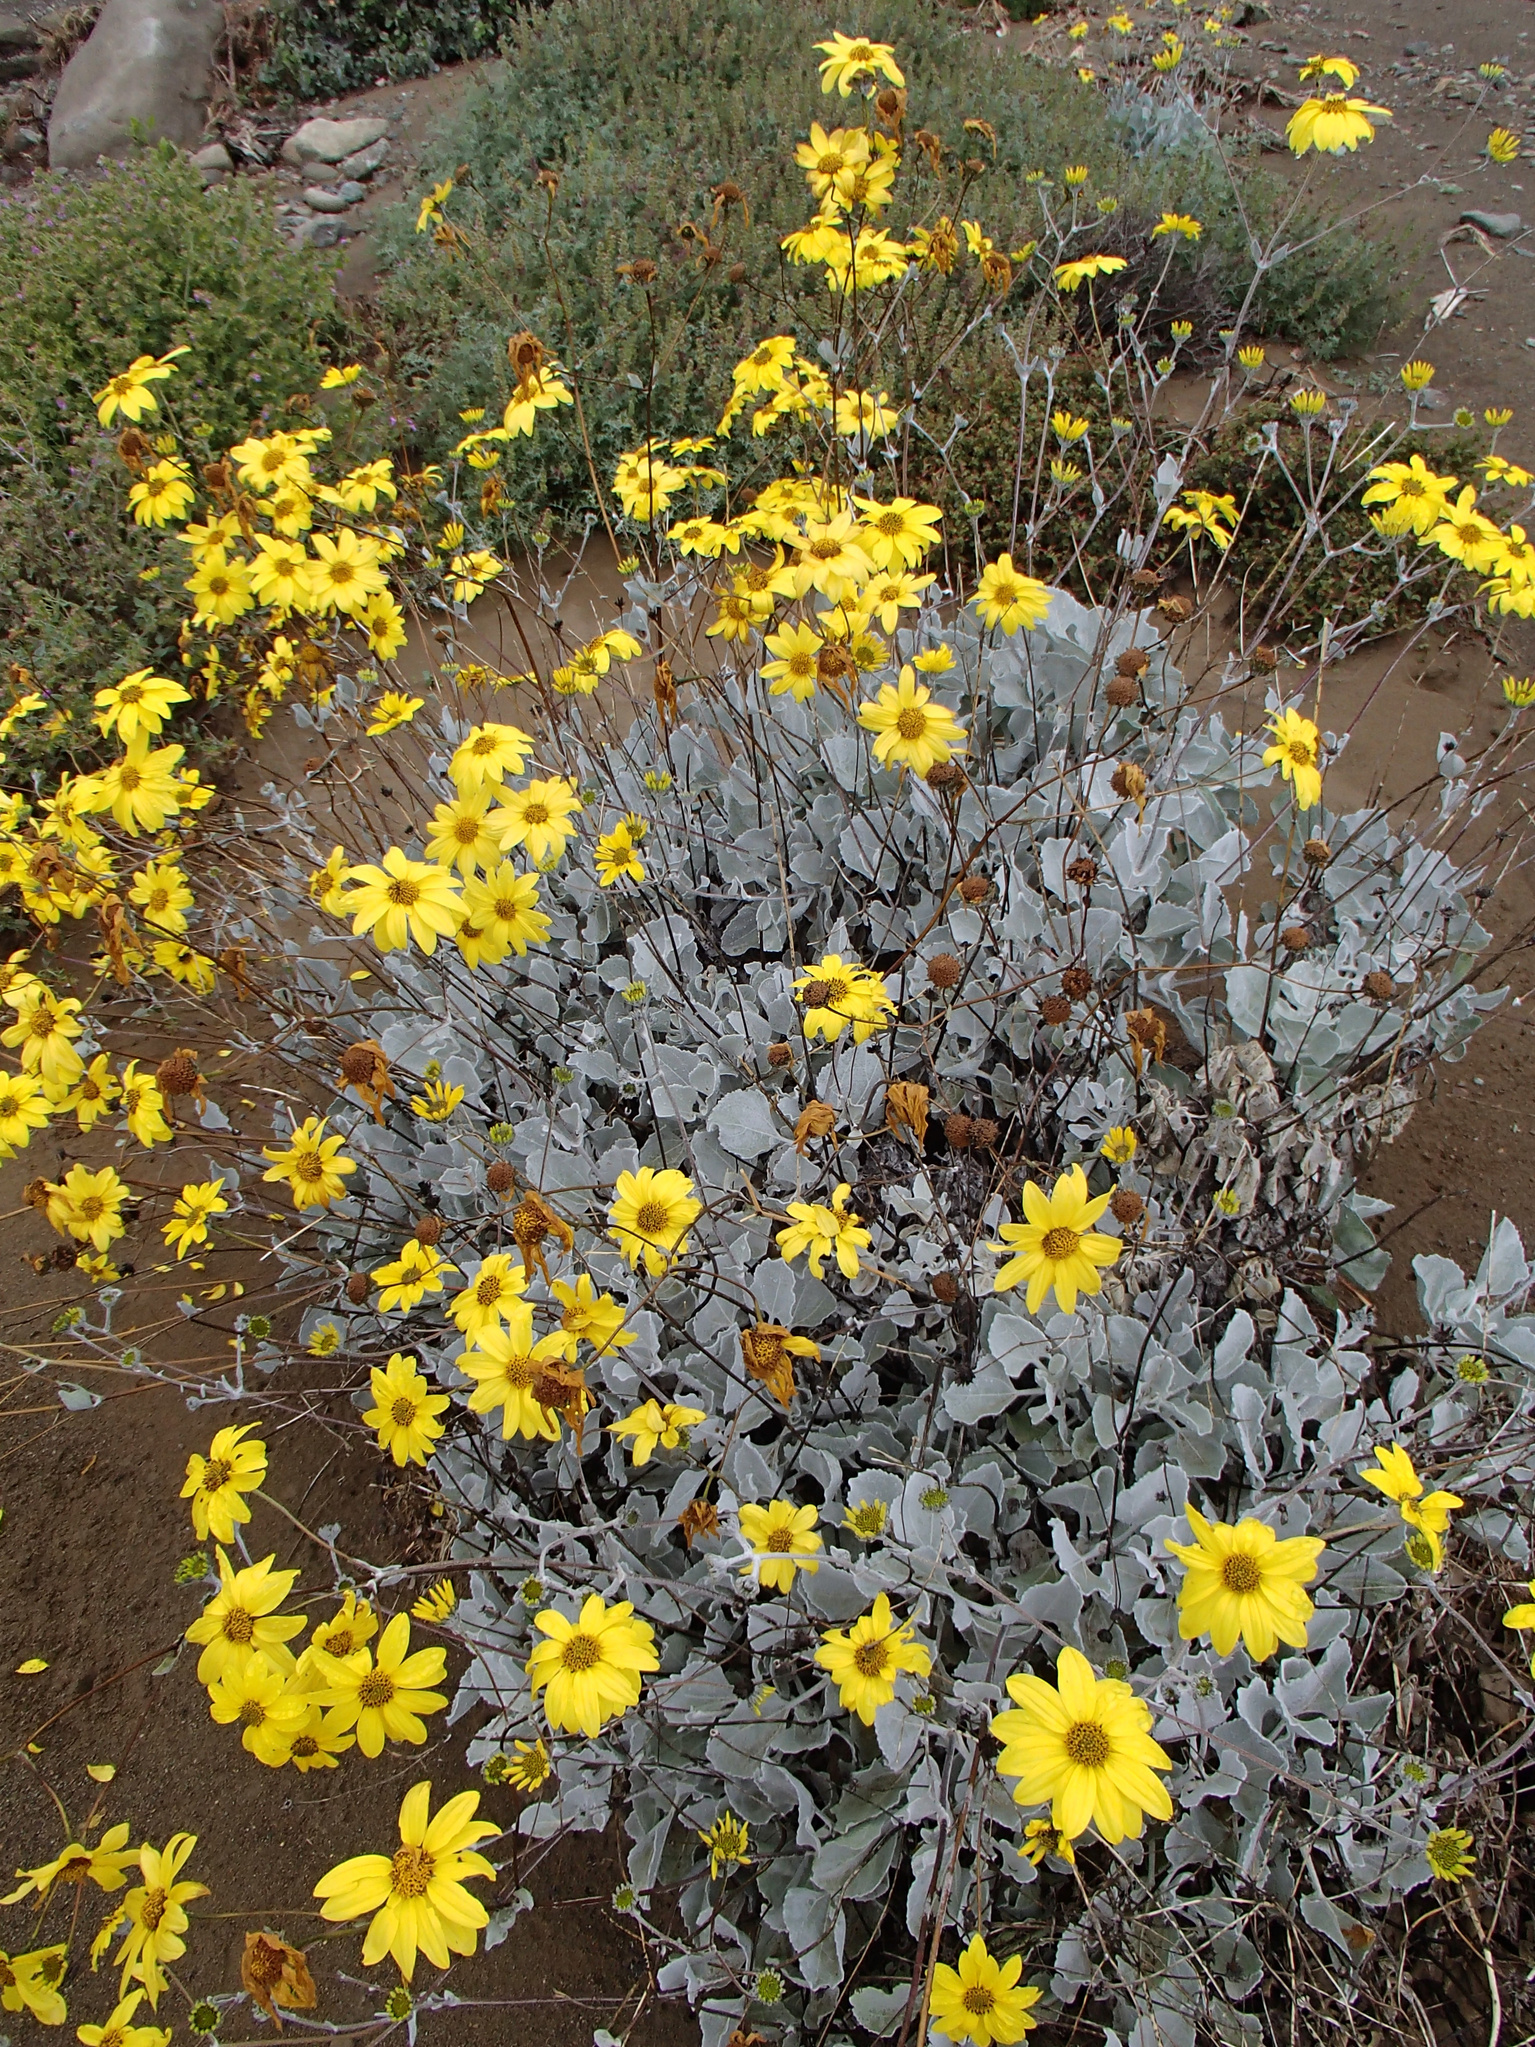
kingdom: Plantae
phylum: Tracheophyta
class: Magnoliopsida
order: Asterales
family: Asteraceae
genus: Bahiopsis
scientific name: Bahiopsis lanata
